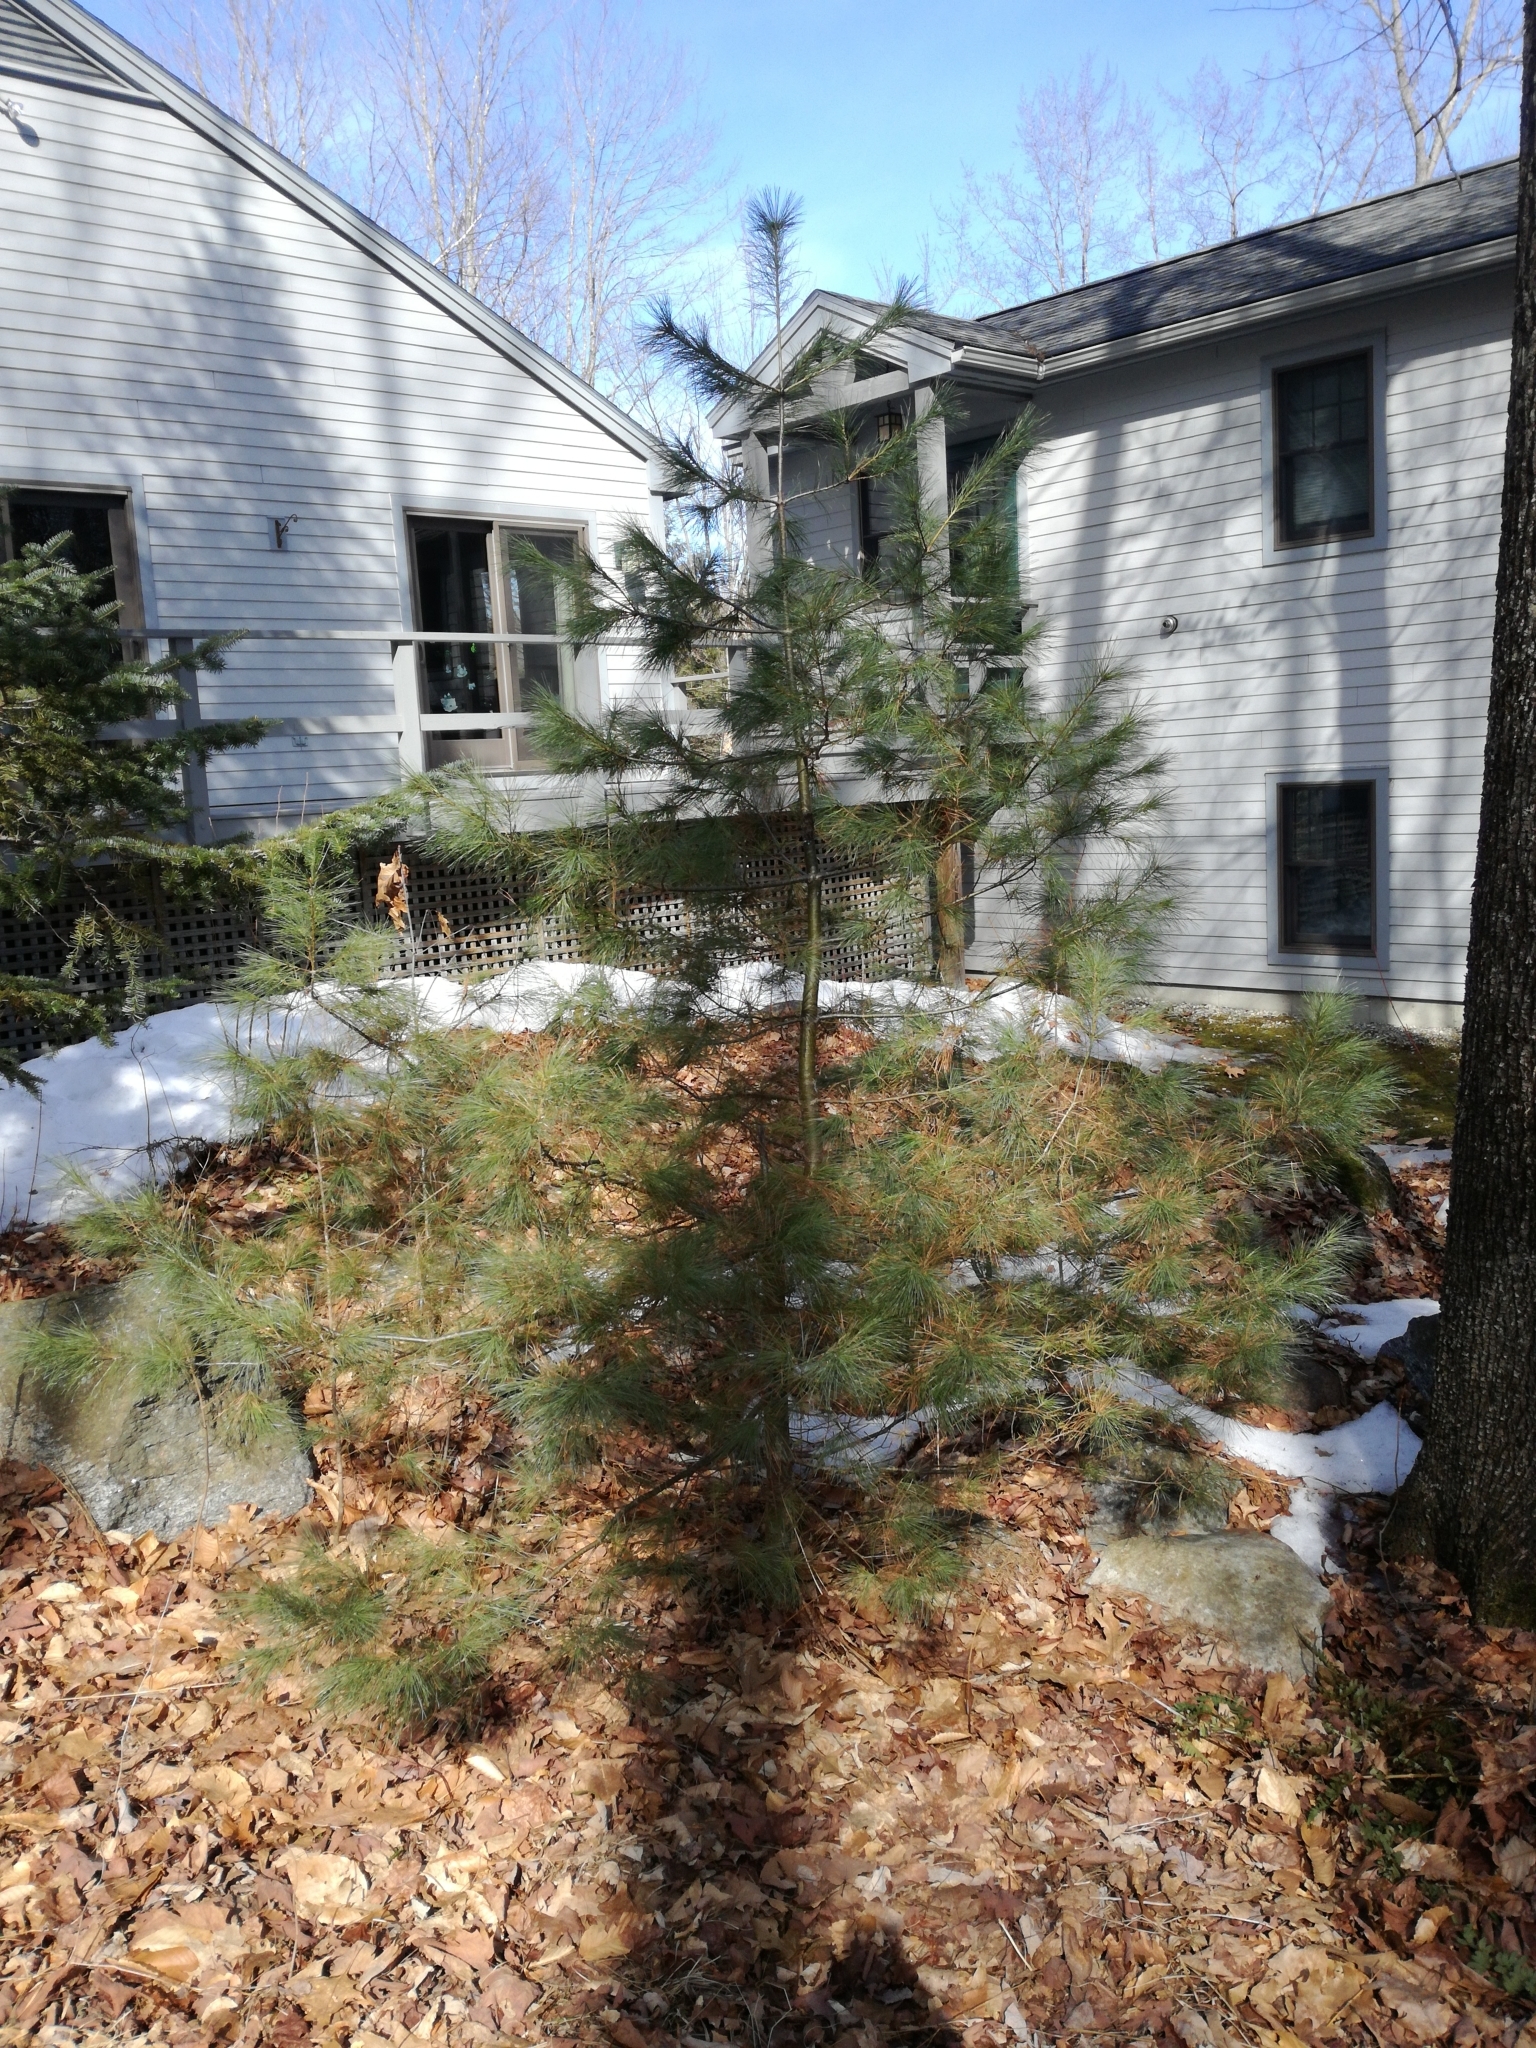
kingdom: Plantae
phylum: Tracheophyta
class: Pinopsida
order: Pinales
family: Pinaceae
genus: Pinus
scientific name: Pinus strobus
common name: Weymouth pine
